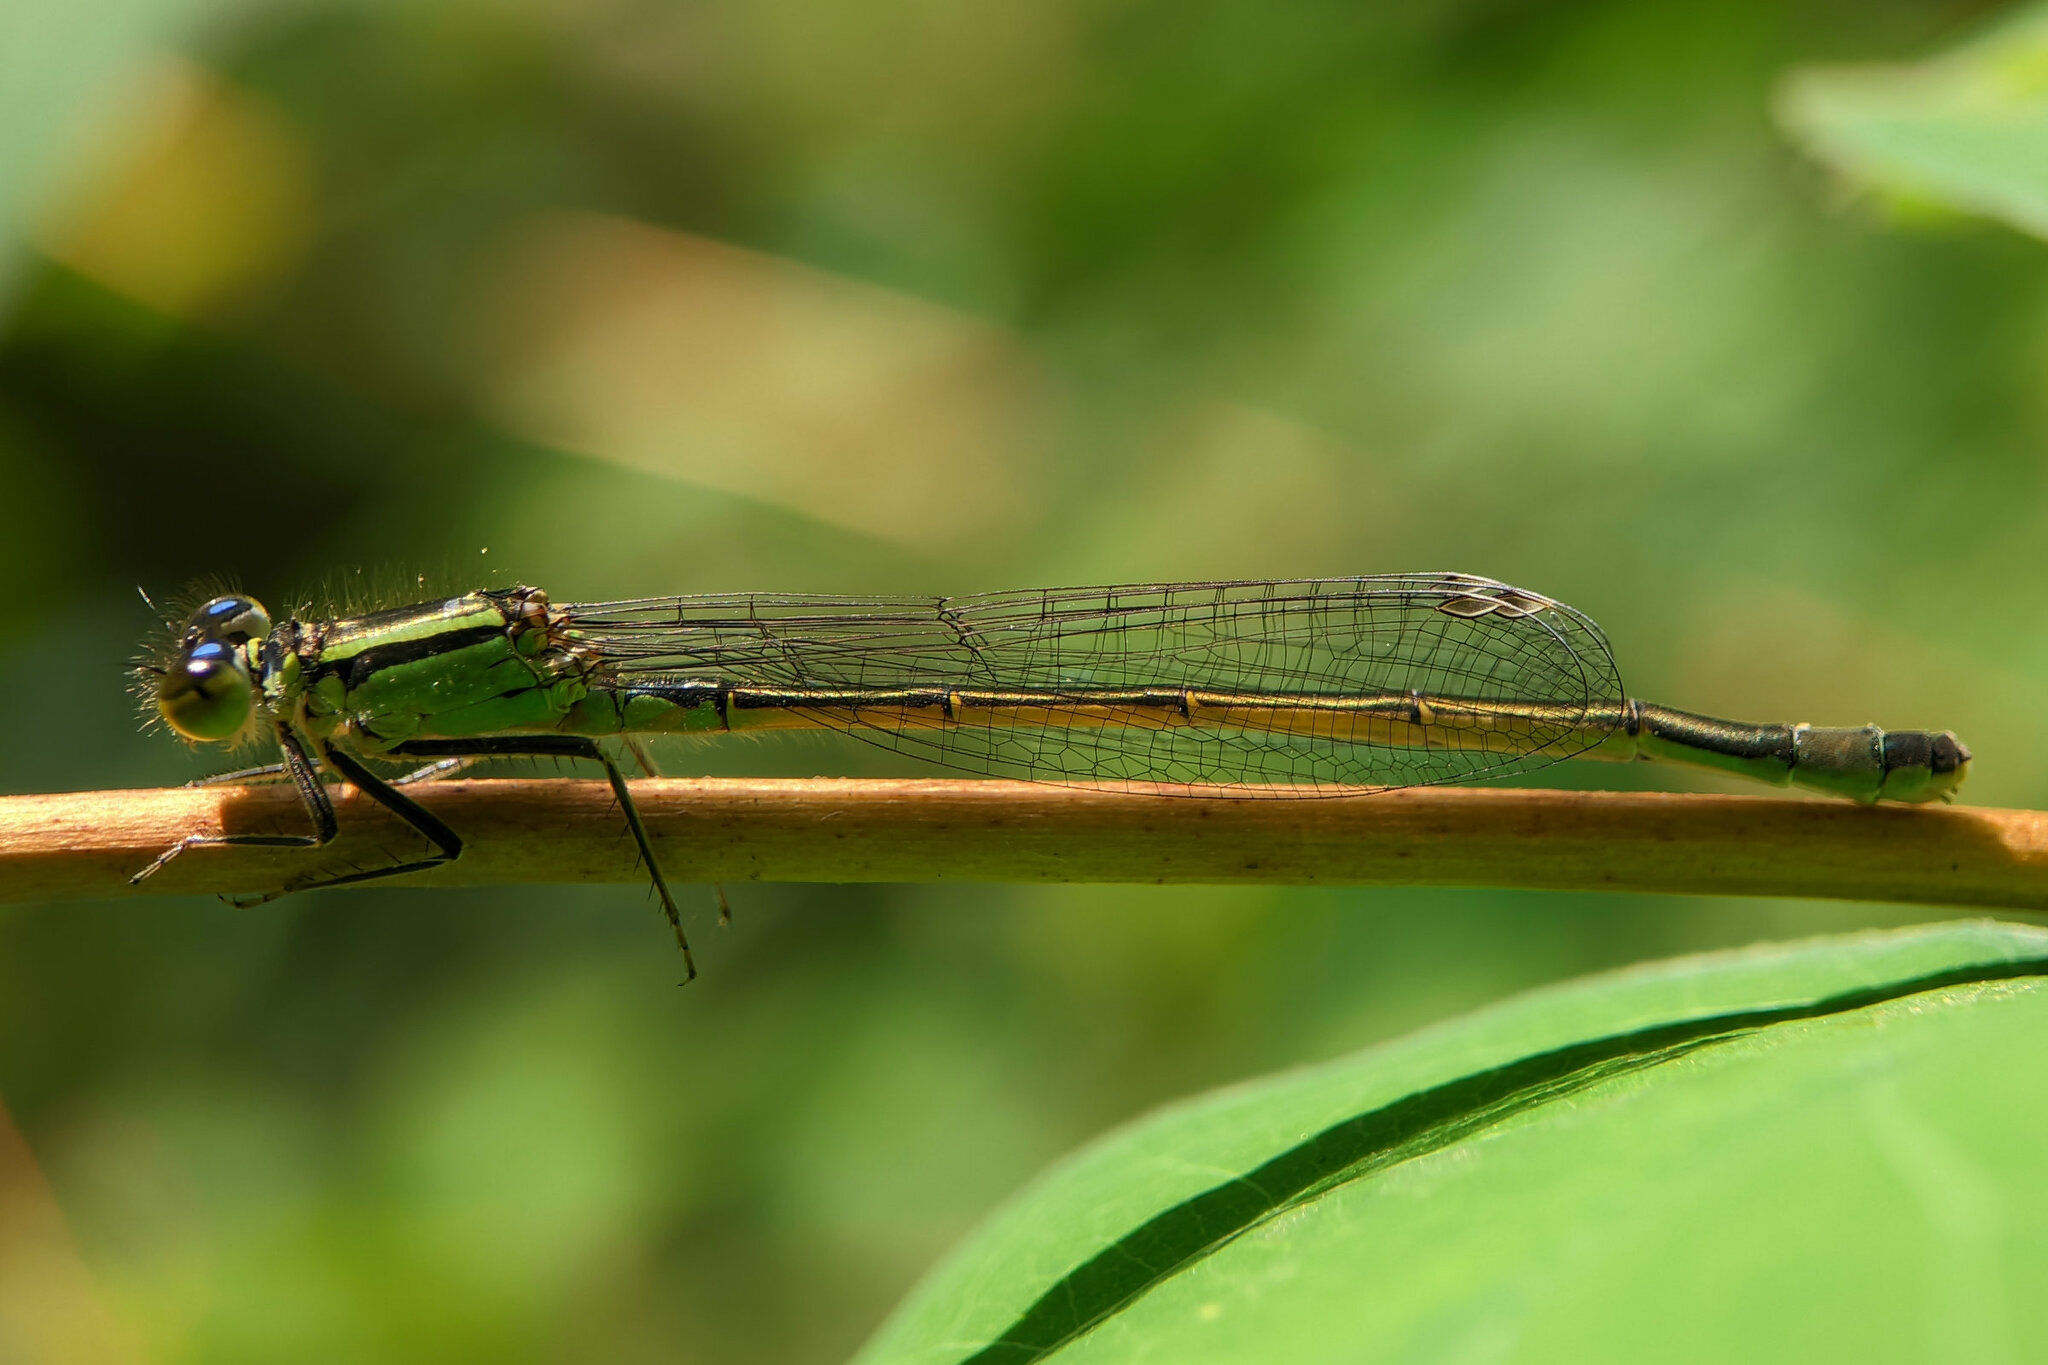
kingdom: Animalia
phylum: Arthropoda
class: Insecta
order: Odonata
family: Coenagrionidae
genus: Ischnura
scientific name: Ischnura elegans
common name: Blue-tailed damselfly
